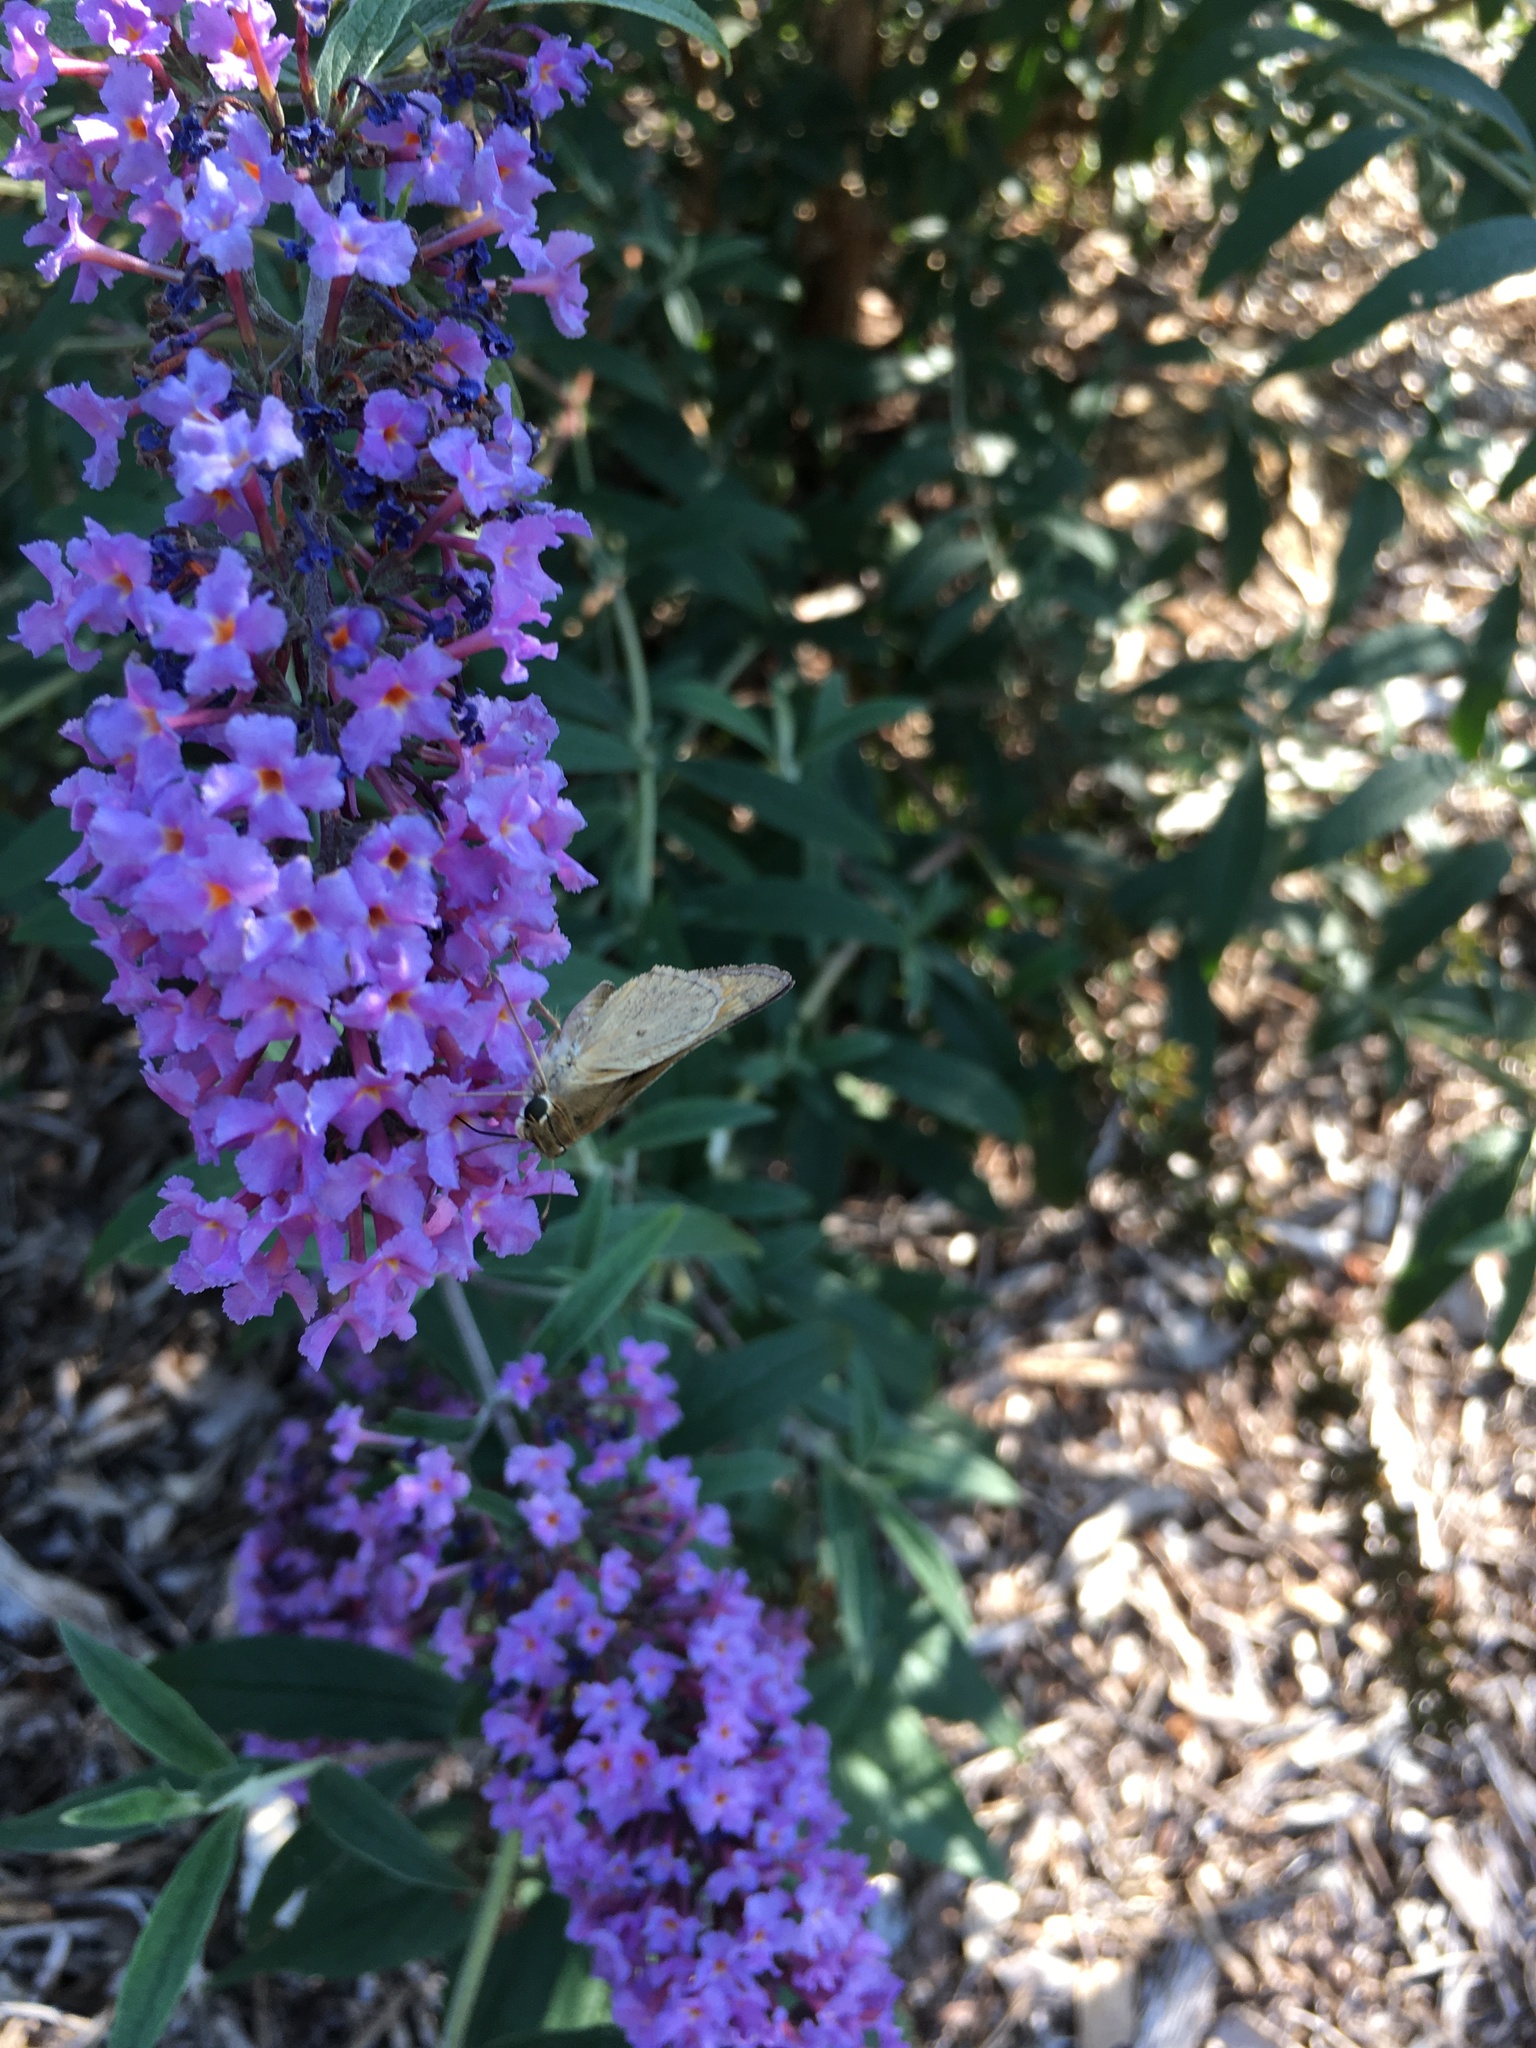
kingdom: Animalia
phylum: Arthropoda
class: Insecta
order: Lepidoptera
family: Hesperiidae
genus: Lerodea
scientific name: Lerodea eufala
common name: Eufala skipper
